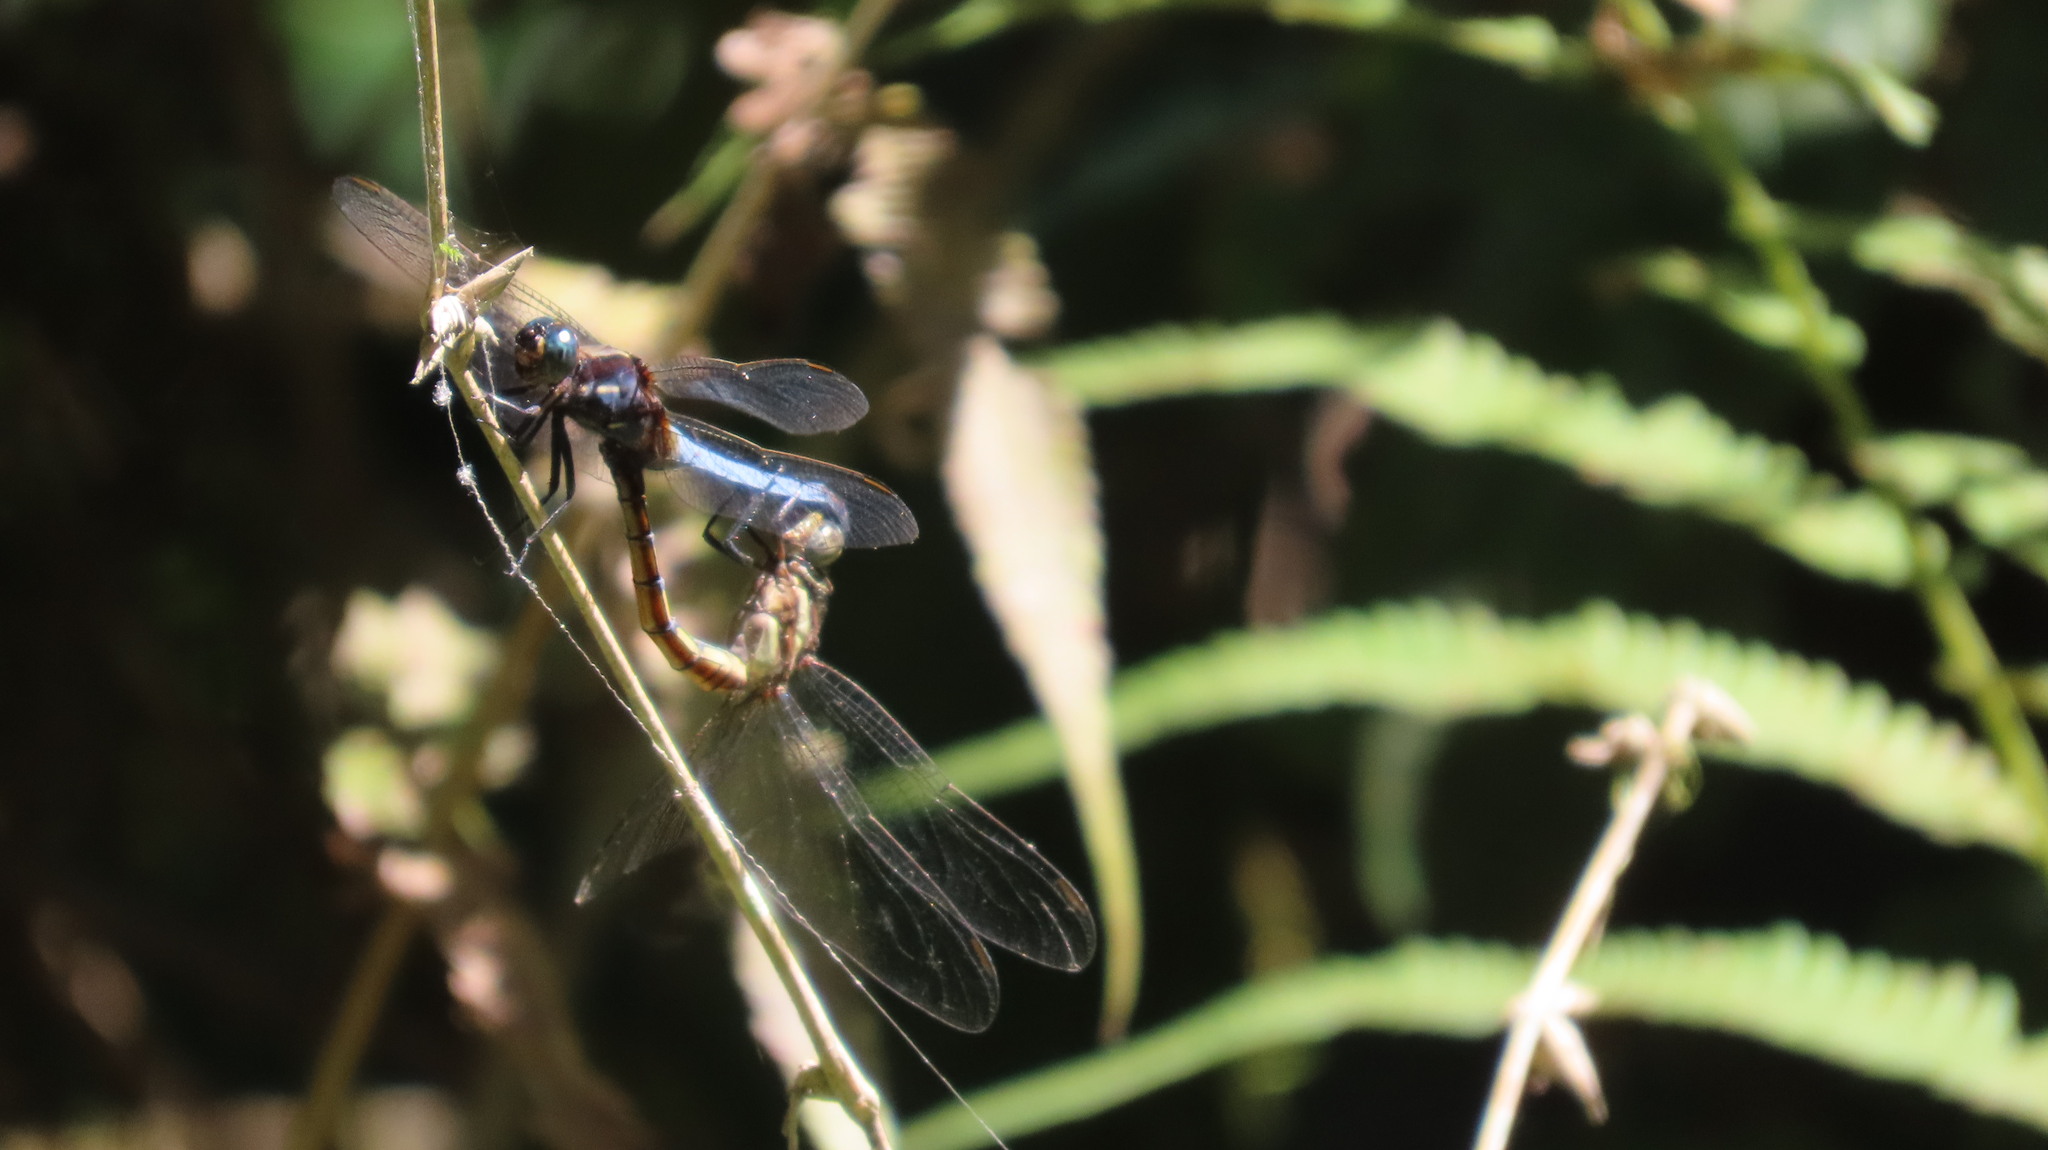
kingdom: Animalia
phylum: Arthropoda
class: Insecta
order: Odonata
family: Libellulidae
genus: Orthetrum
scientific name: Orthetrum glaucum
